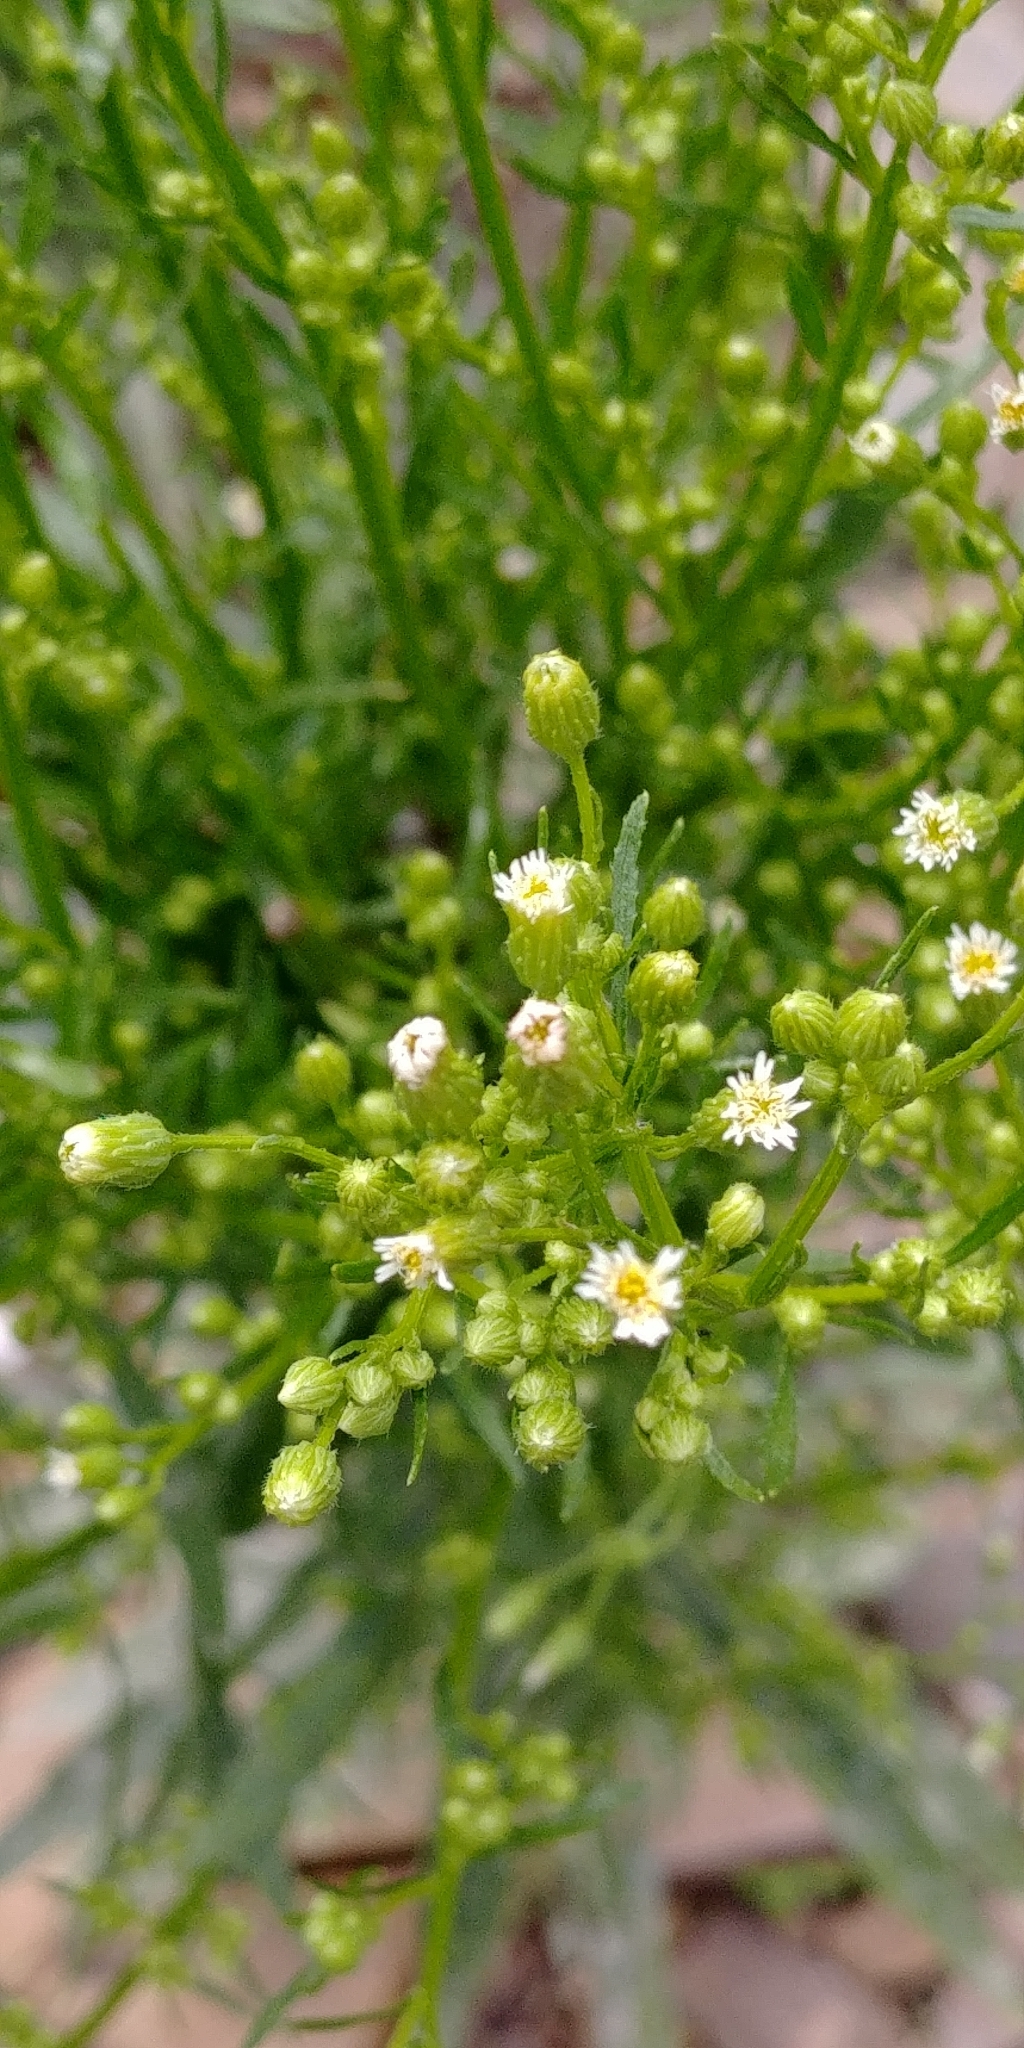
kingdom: Plantae
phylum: Tracheophyta
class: Magnoliopsida
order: Asterales
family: Asteraceae
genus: Erigeron
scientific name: Erigeron canadensis
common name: Canadian fleabane
